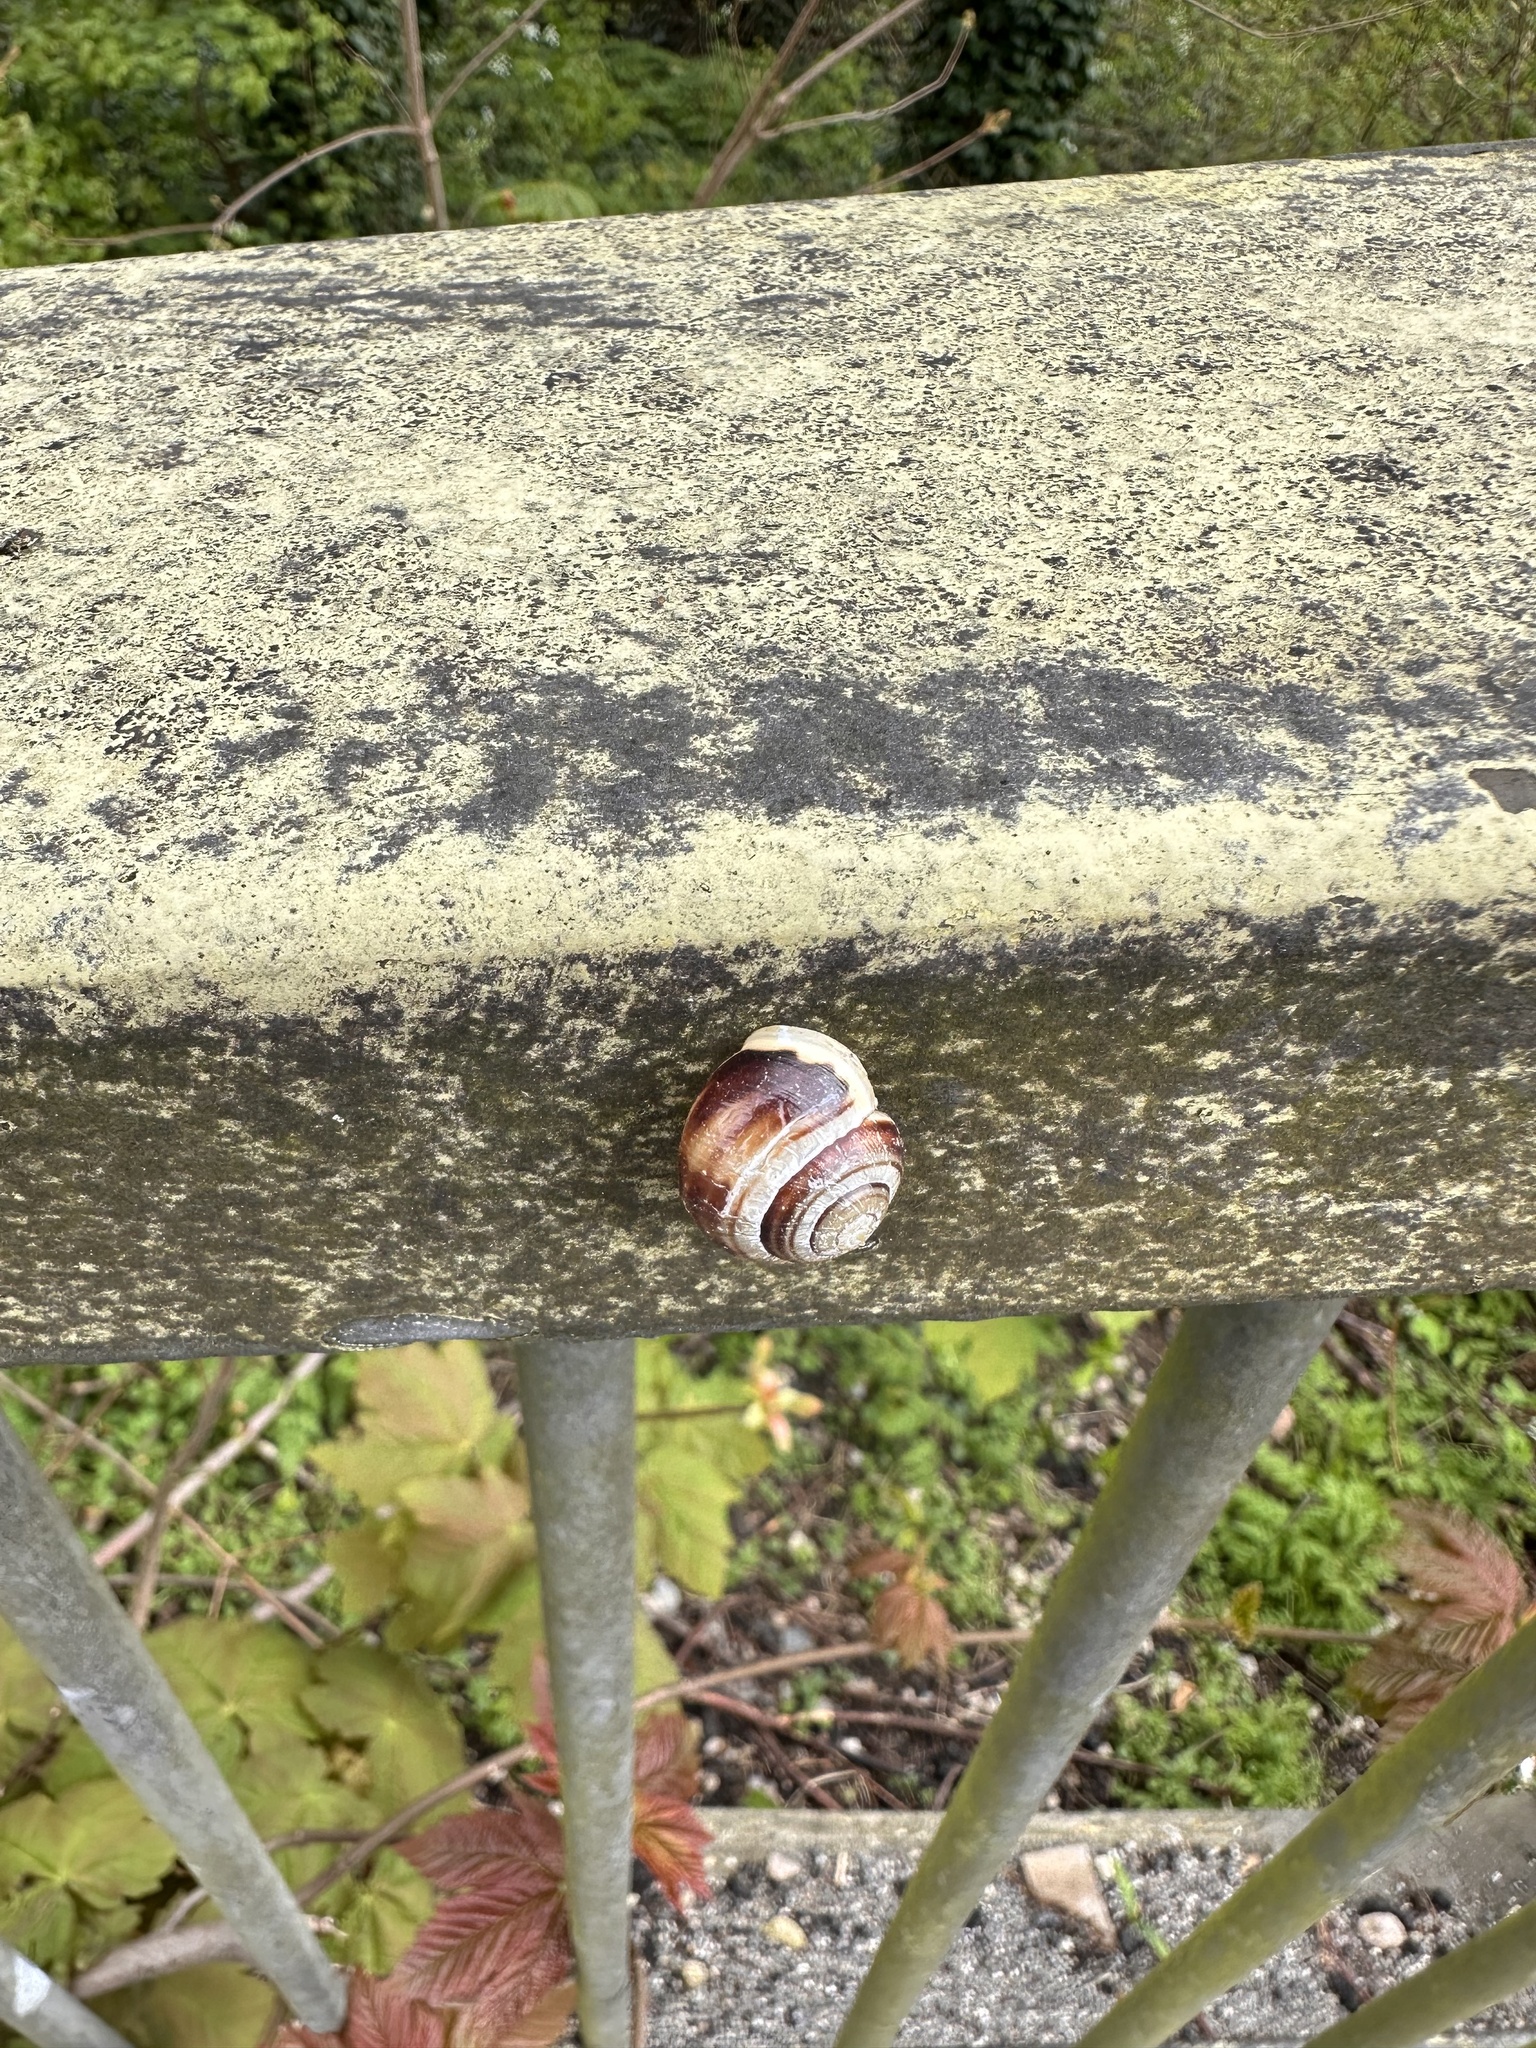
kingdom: Animalia
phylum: Mollusca
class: Gastropoda
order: Stylommatophora
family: Helicidae
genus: Cepaea
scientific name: Cepaea hortensis
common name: White-lip gardensnail
